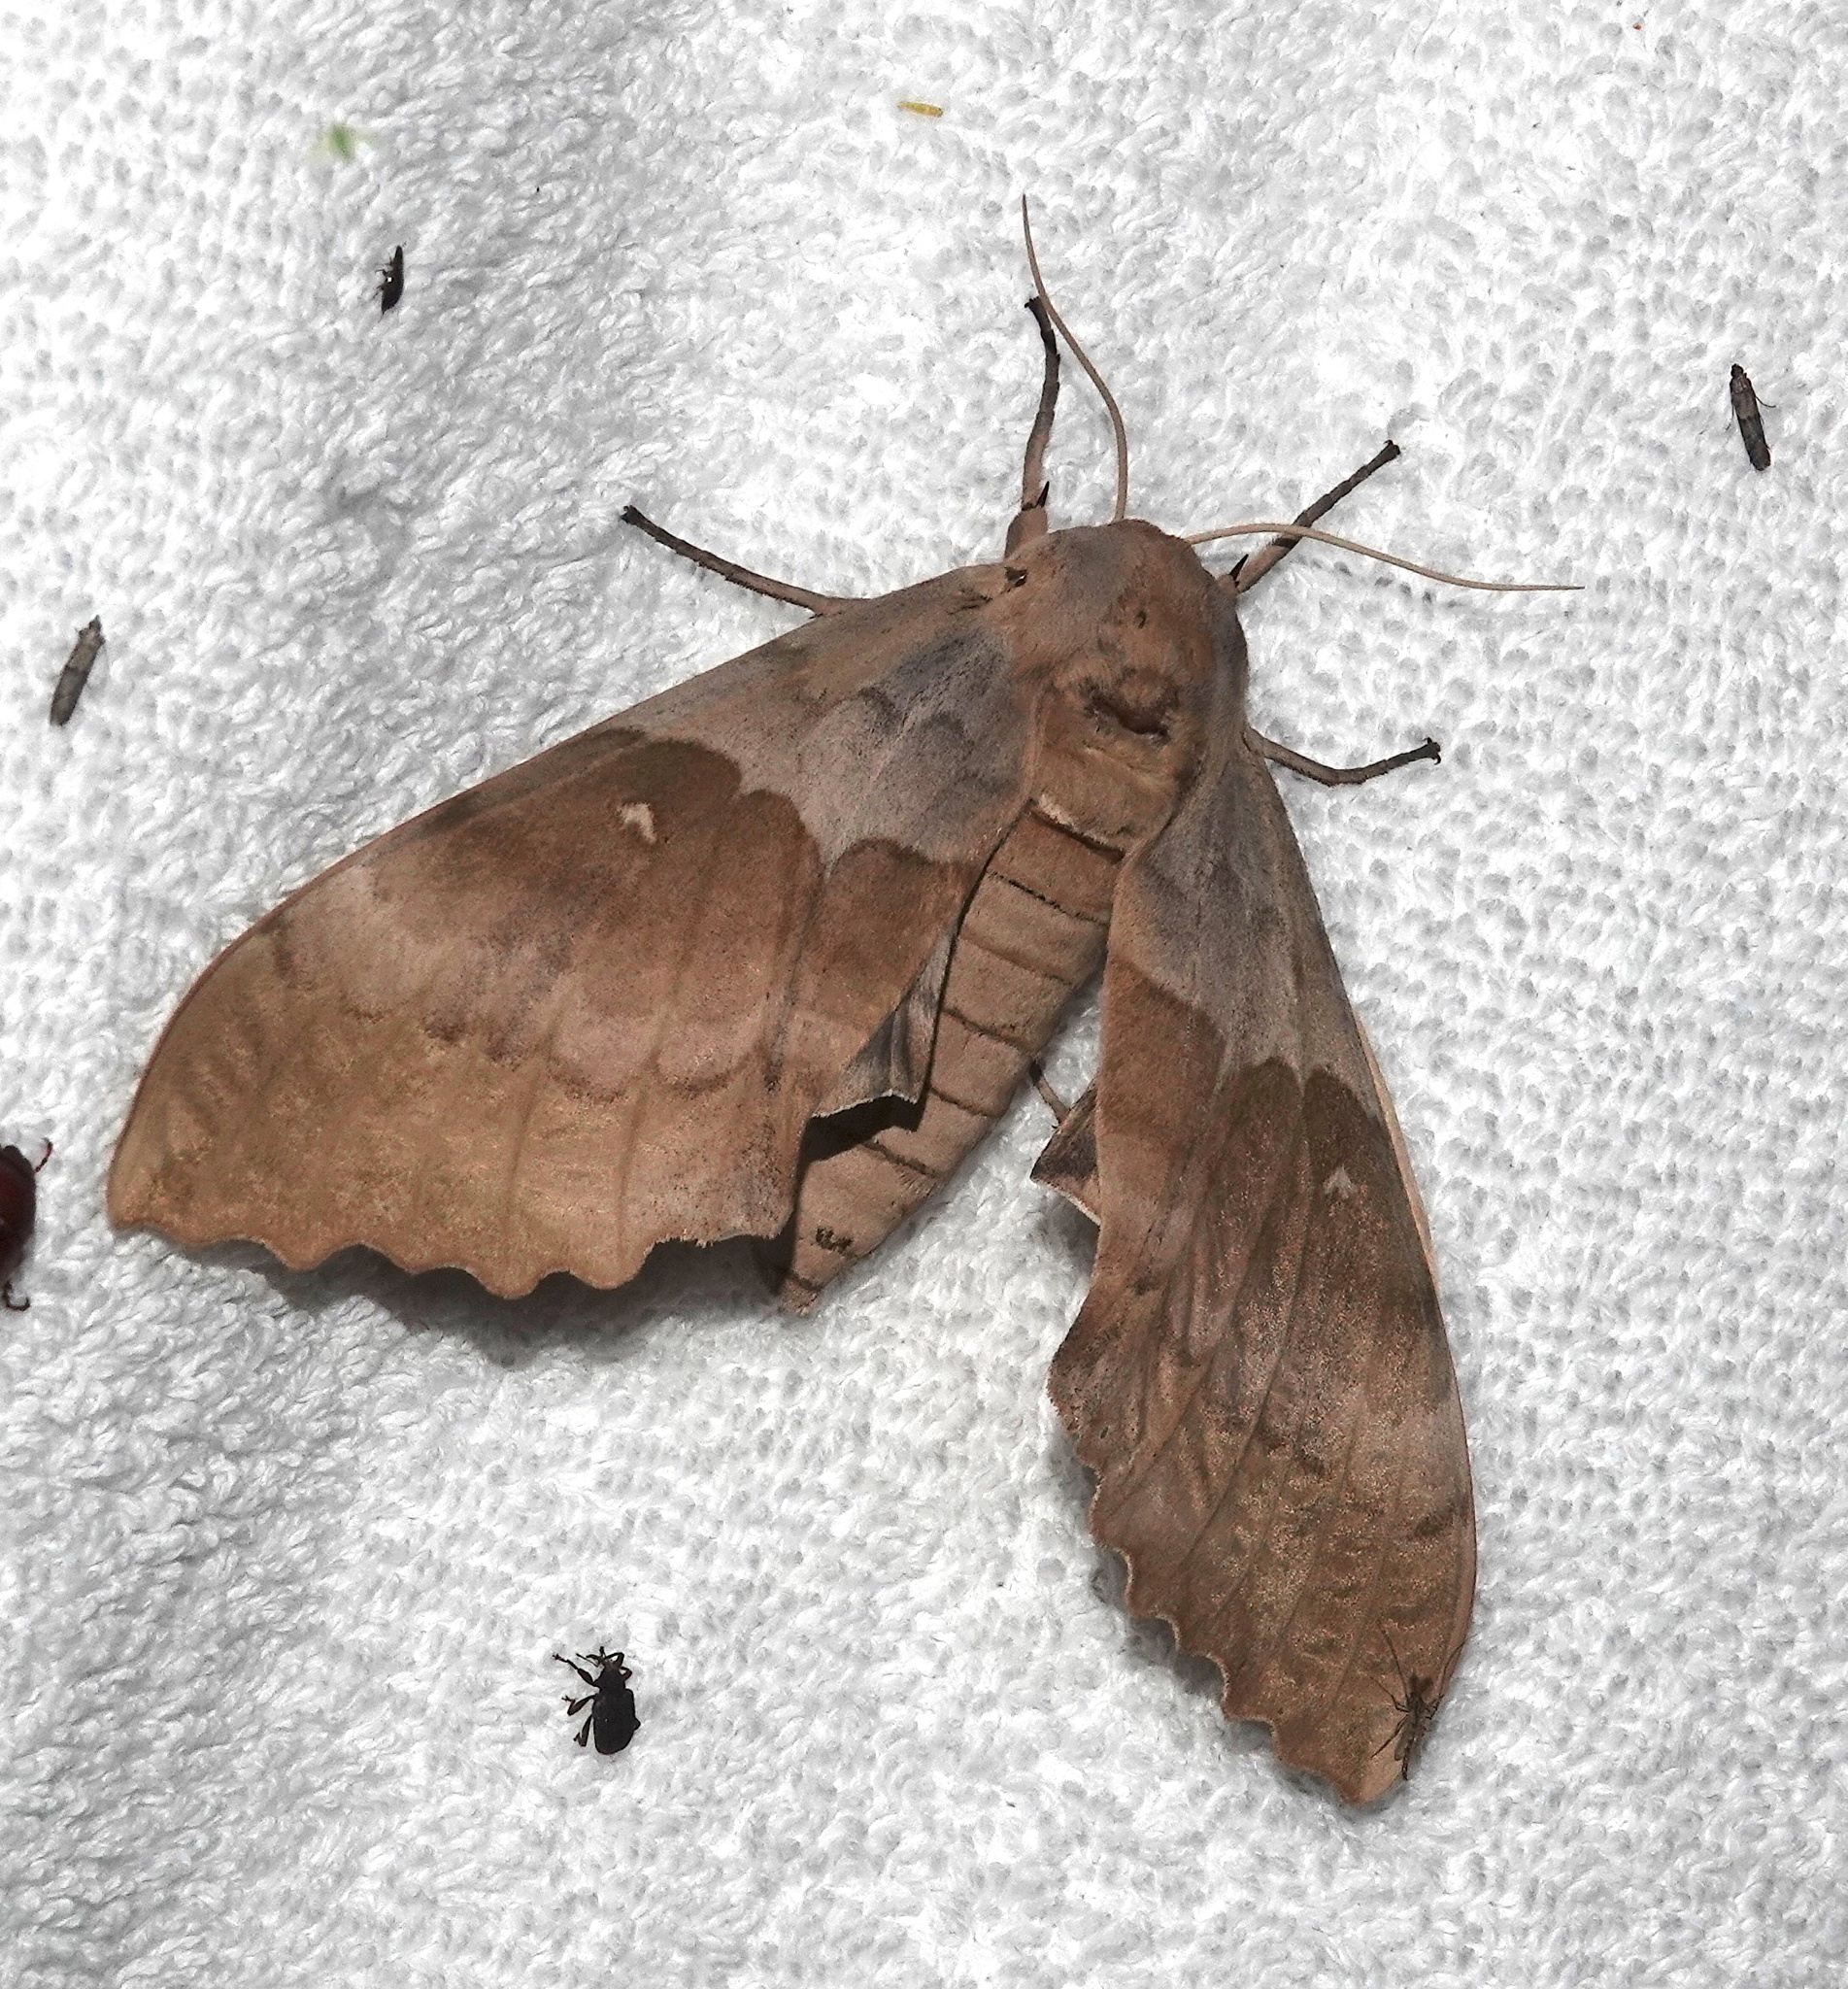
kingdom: Animalia
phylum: Arthropoda
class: Insecta
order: Lepidoptera
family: Sphingidae
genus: Pachysphinx
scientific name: Pachysphinx occidentalis
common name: Western poplar sphinx
